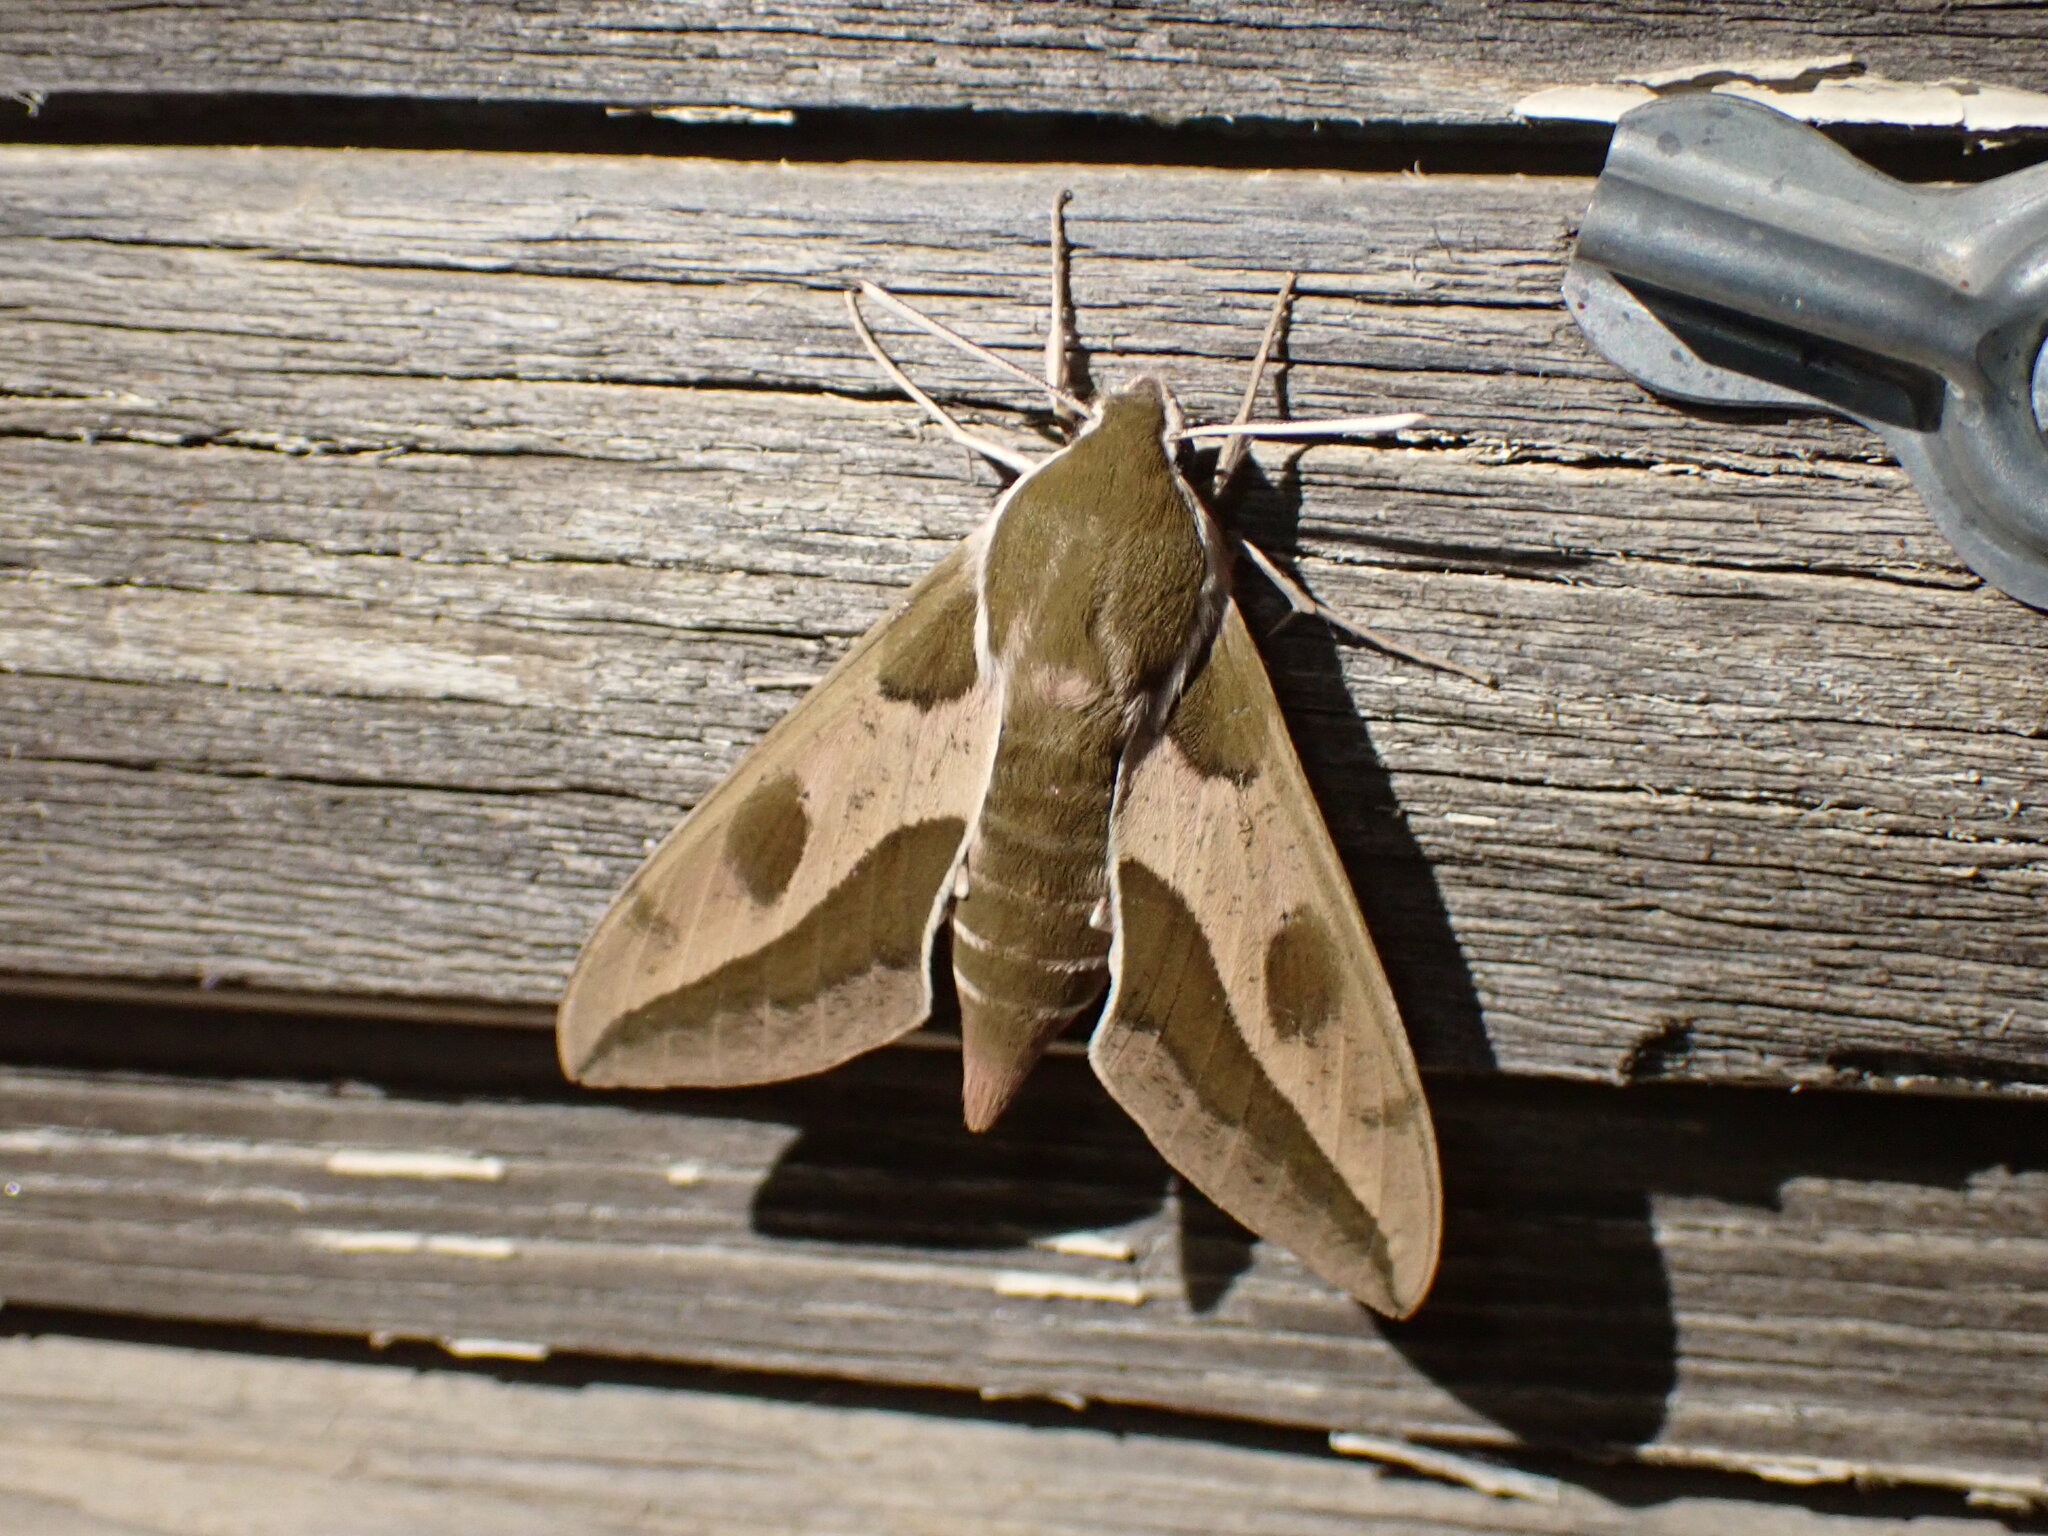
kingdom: Animalia
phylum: Arthropoda
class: Insecta
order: Lepidoptera
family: Sphingidae
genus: Hyles
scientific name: Hyles euphorbiae
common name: Spurge hawk-moth
